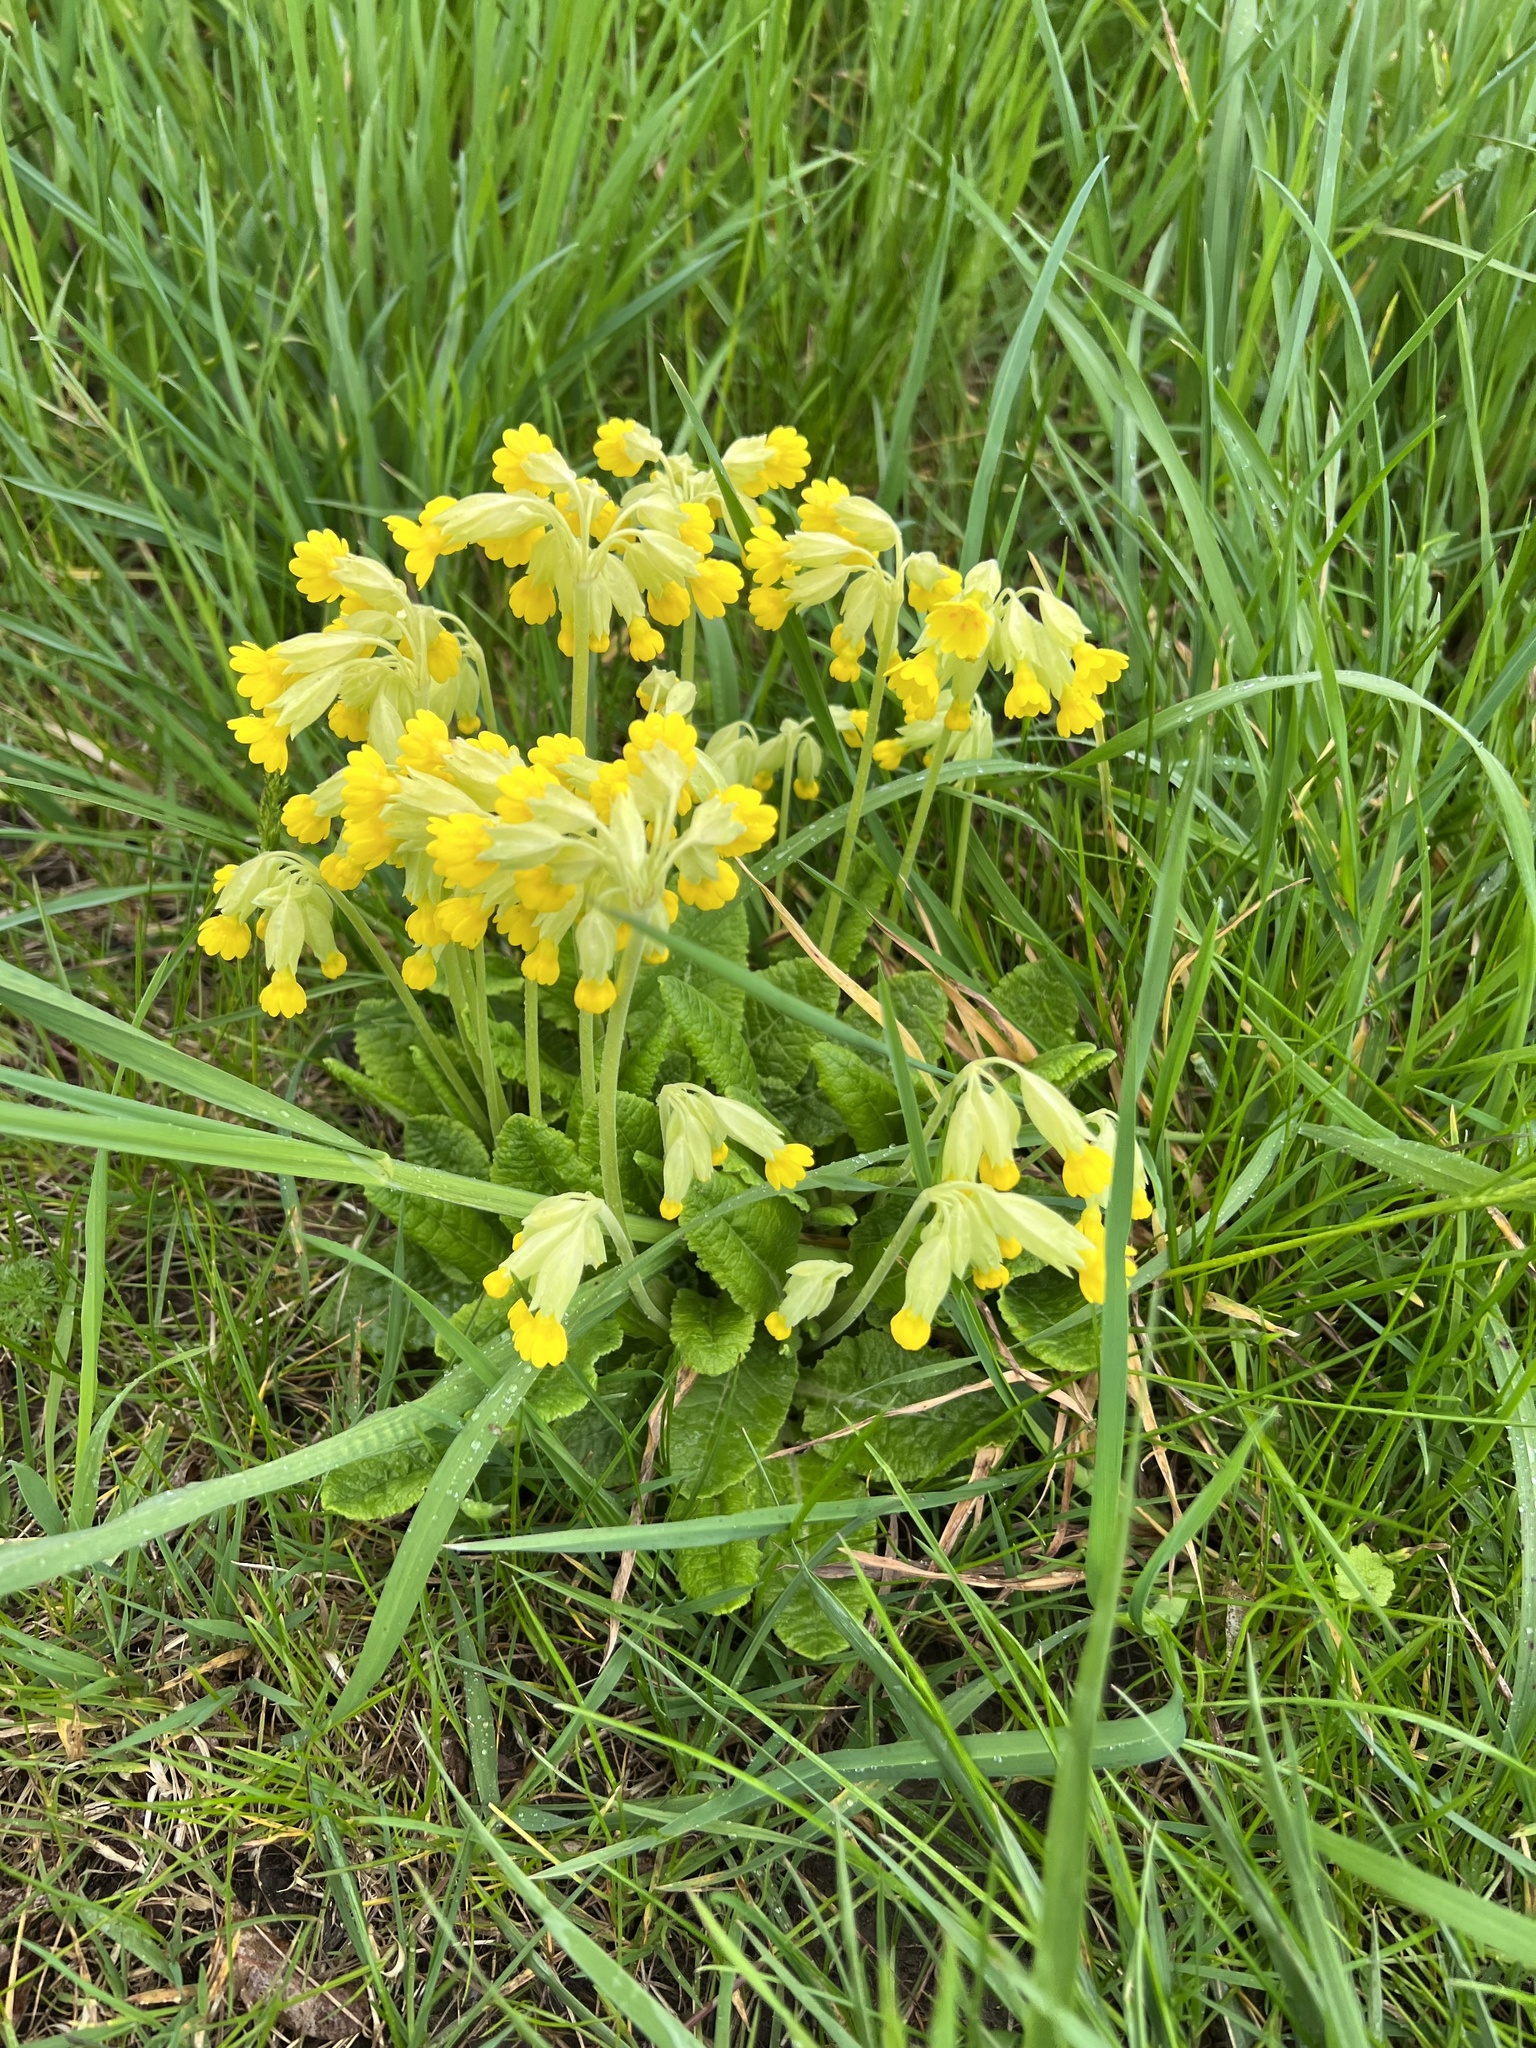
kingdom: Plantae
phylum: Tracheophyta
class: Magnoliopsida
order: Ericales
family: Primulaceae
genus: Primula
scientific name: Primula veris
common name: Cowslip
